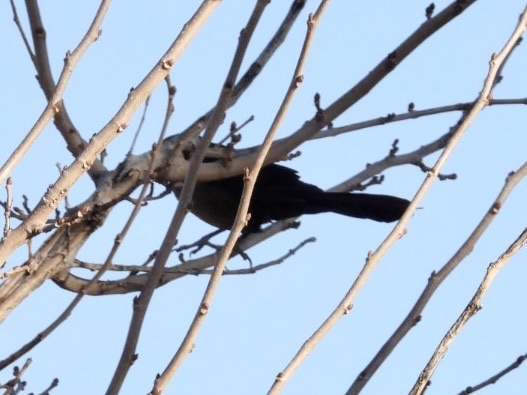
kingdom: Animalia
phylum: Chordata
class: Aves
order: Passeriformes
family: Icteridae
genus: Quiscalus
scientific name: Quiscalus mexicanus
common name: Great-tailed grackle
